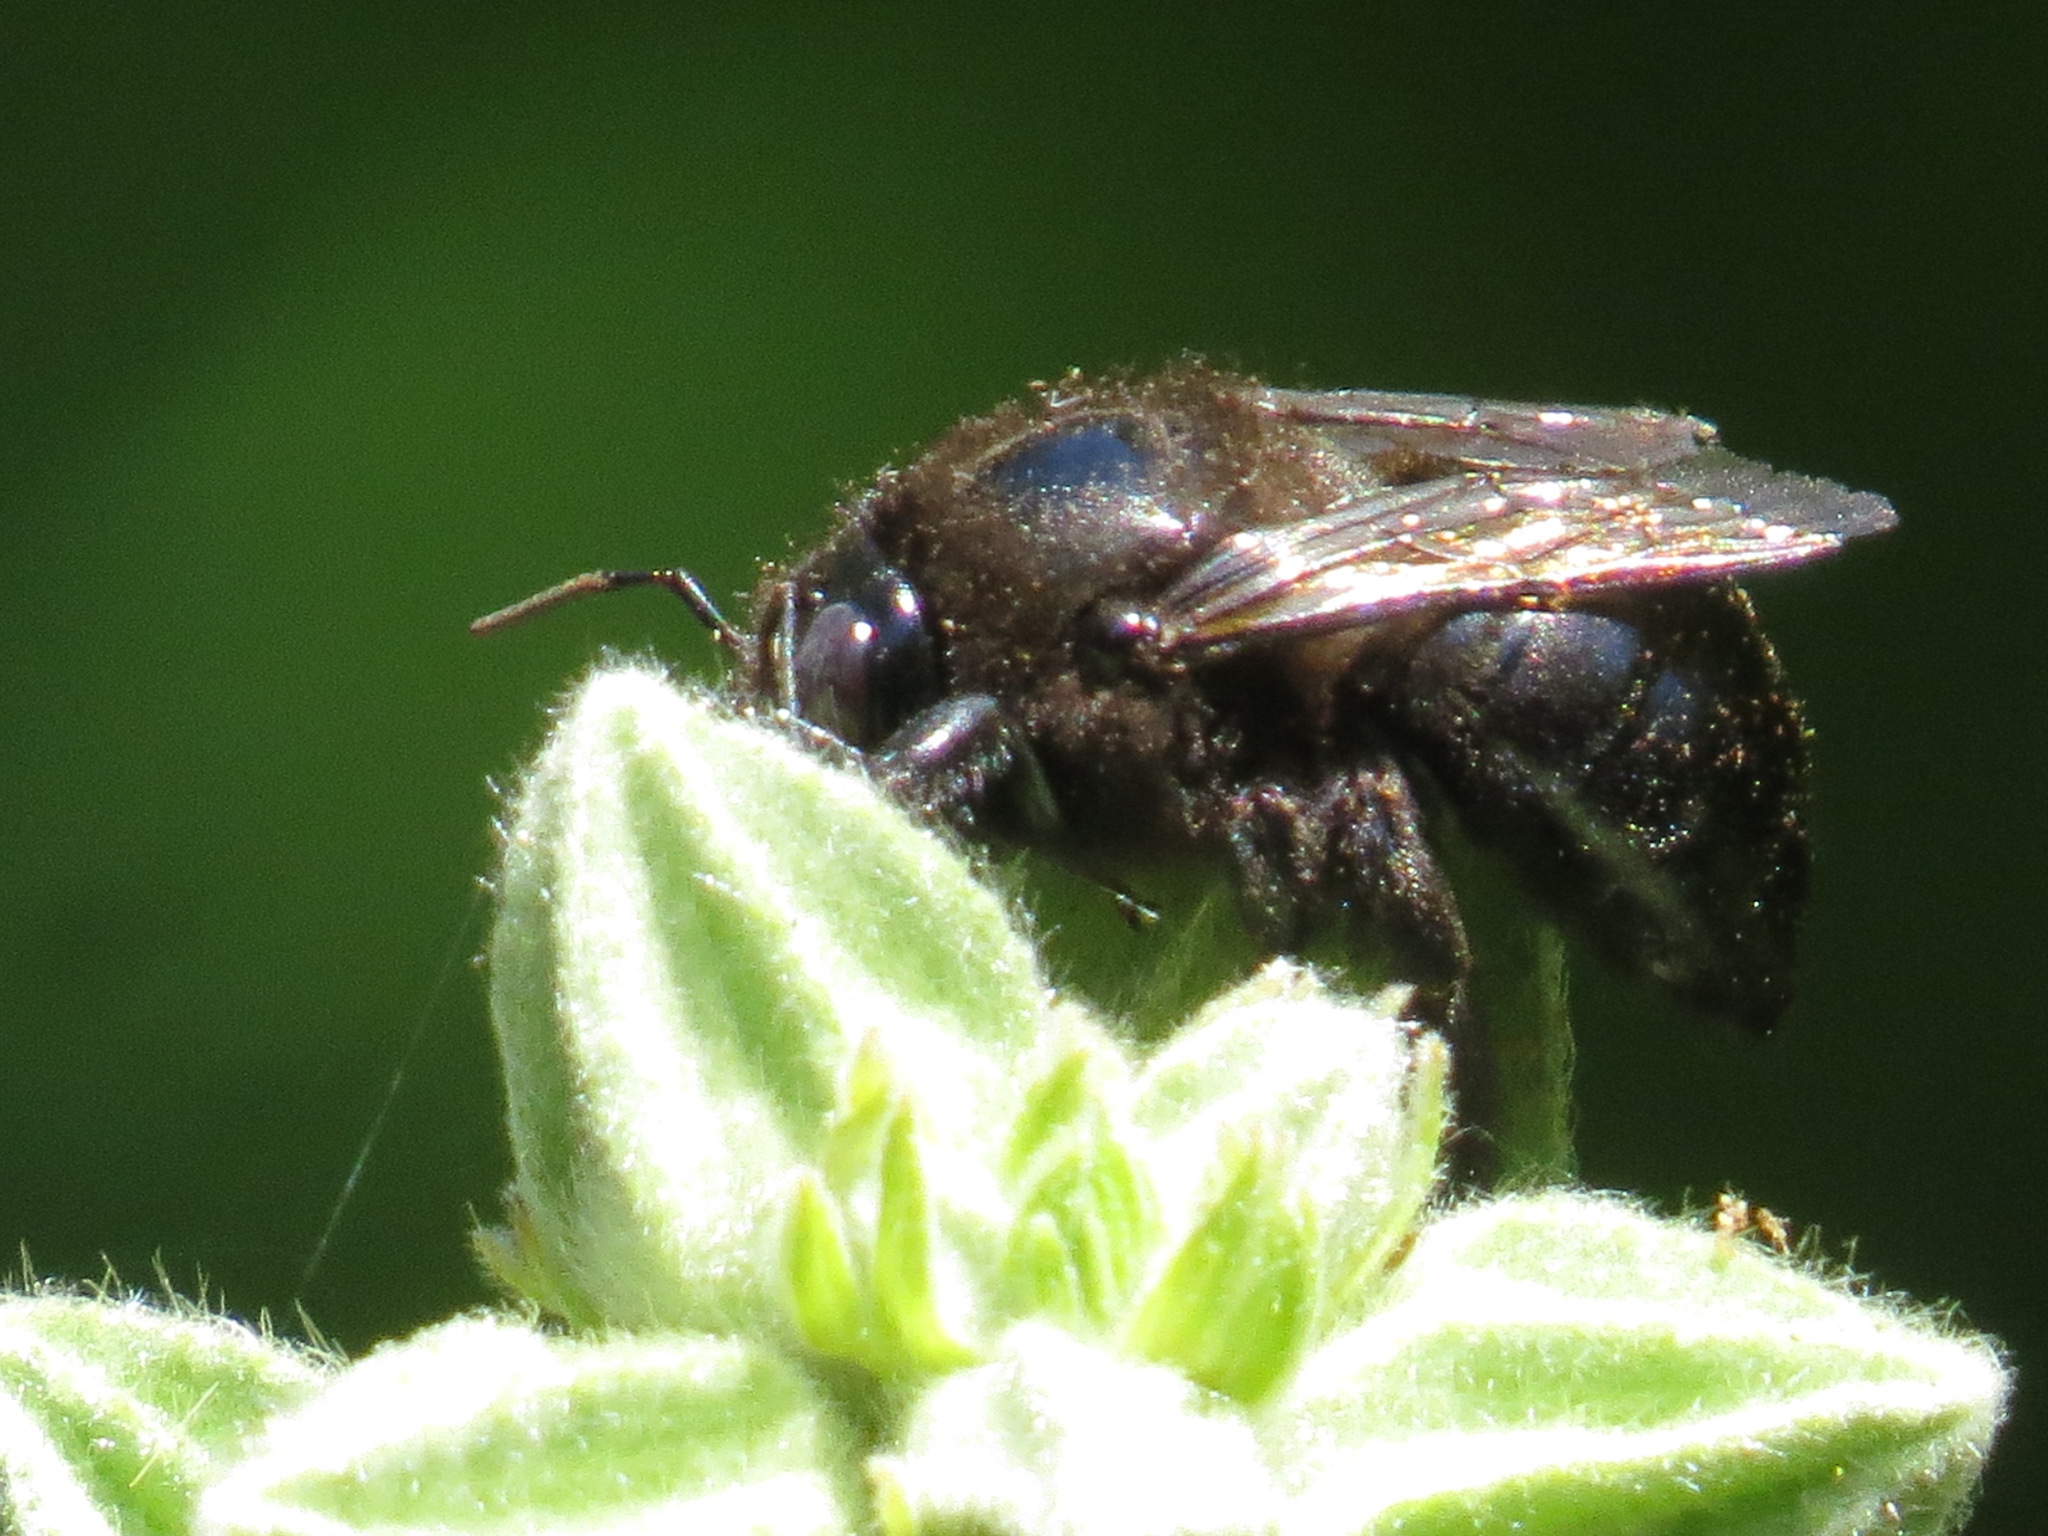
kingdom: Animalia
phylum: Arthropoda
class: Insecta
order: Hymenoptera
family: Apidae
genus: Xylocopa
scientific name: Xylocopa tabaniformis
